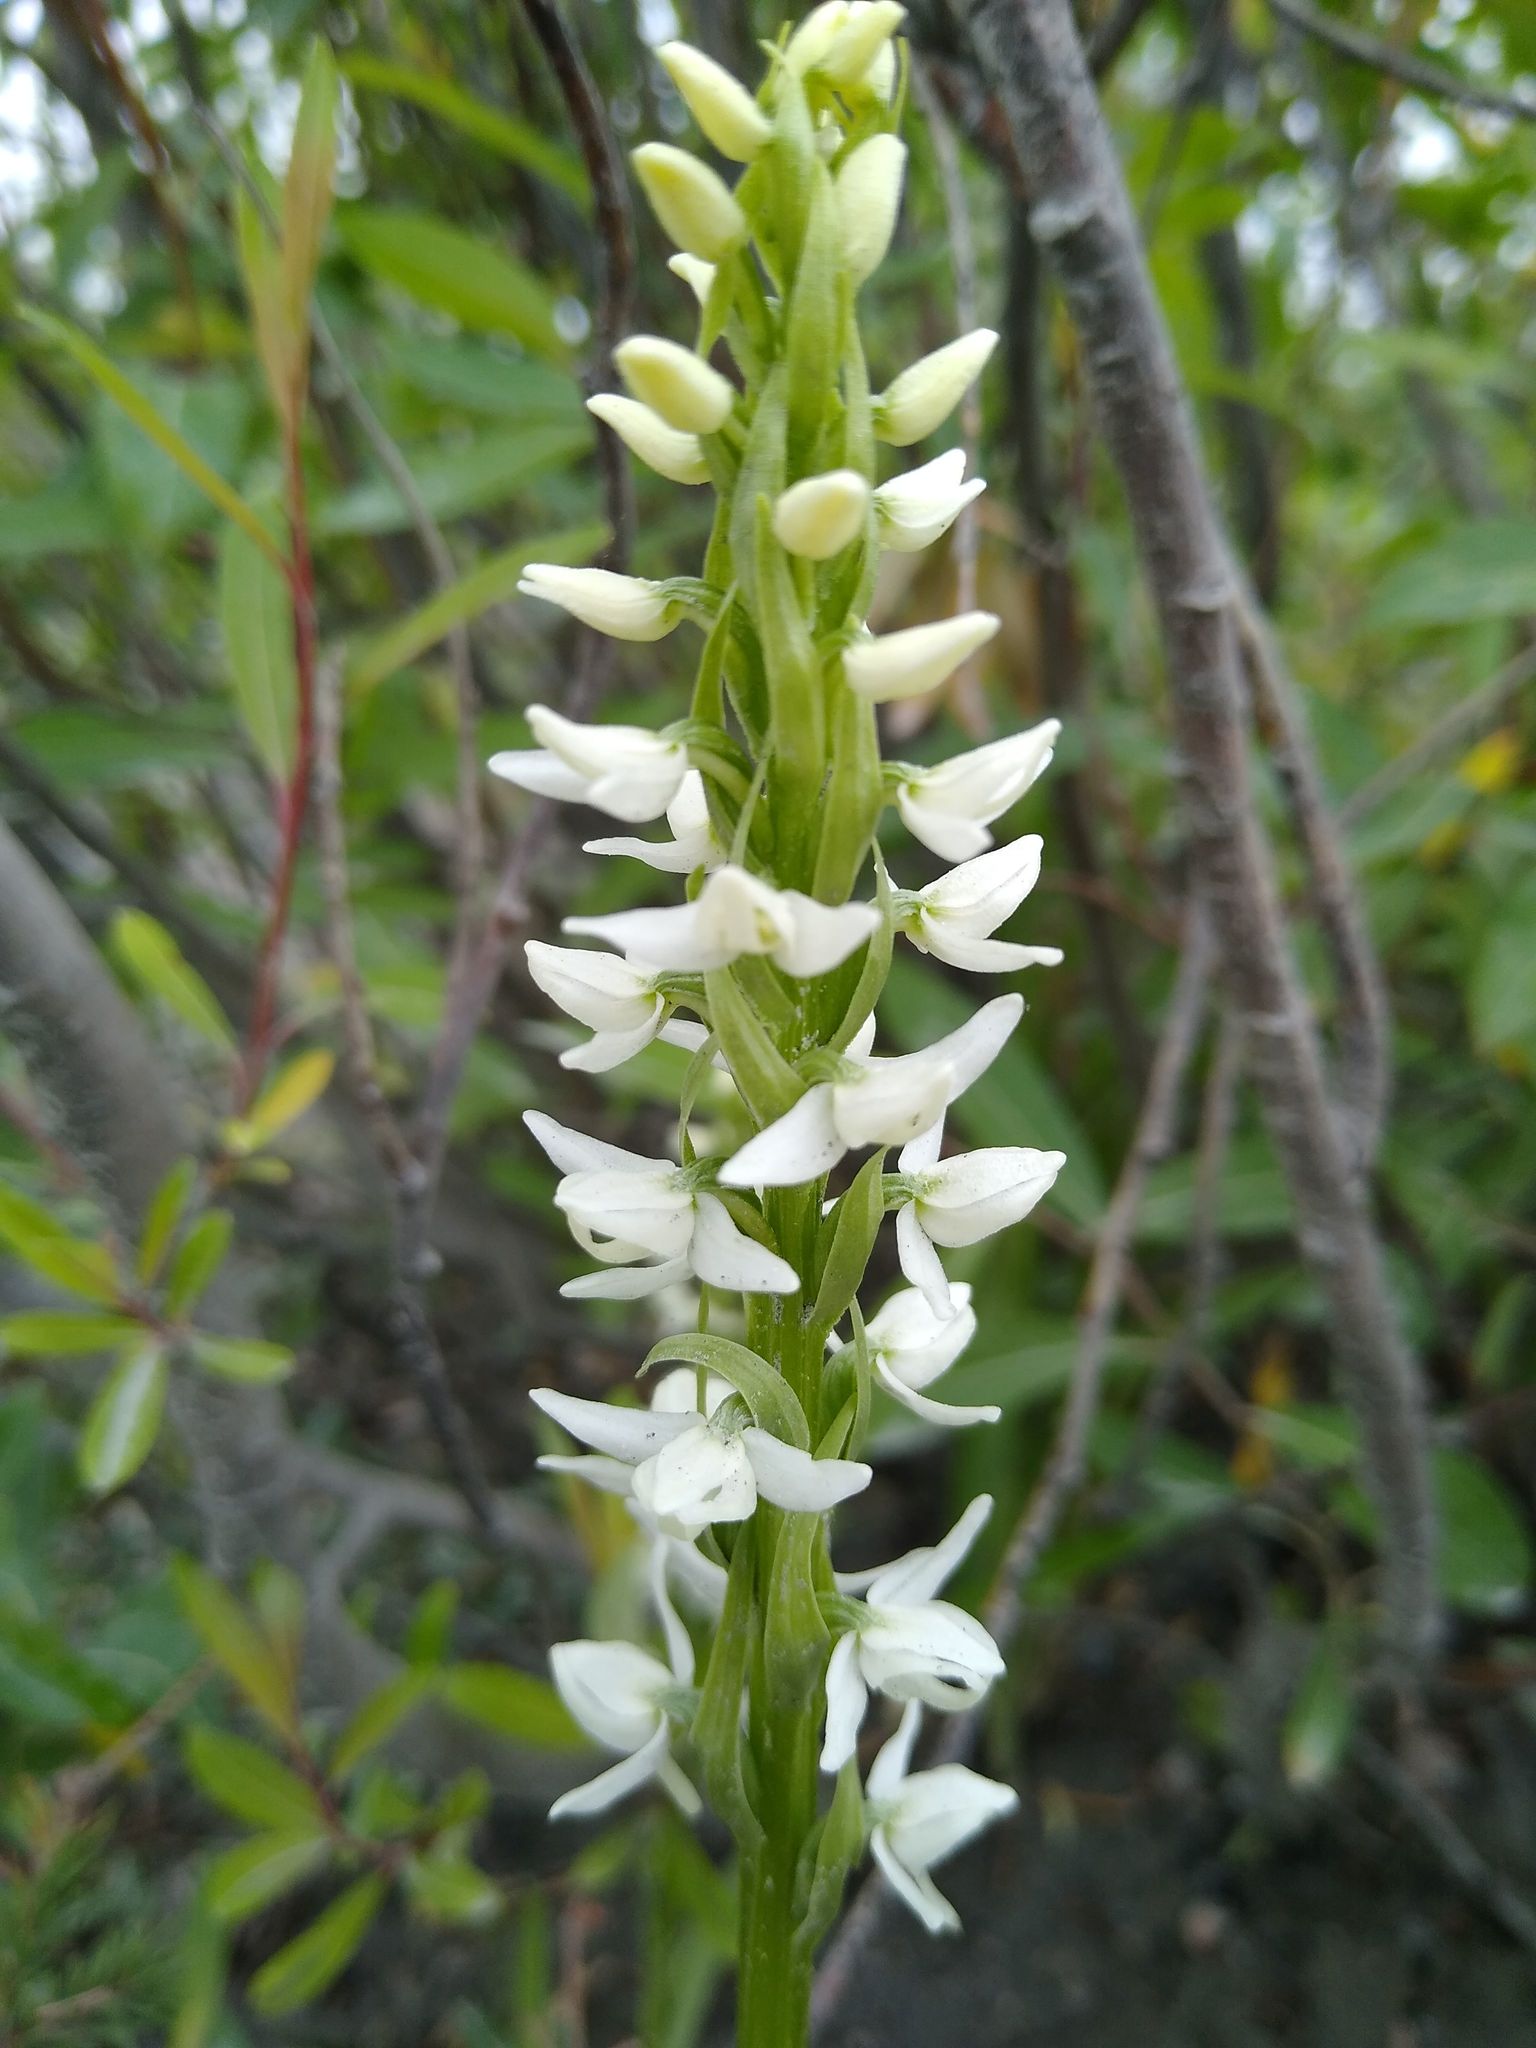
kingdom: Plantae
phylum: Tracheophyta
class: Liliopsida
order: Asparagales
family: Orchidaceae
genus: Platanthera
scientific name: Platanthera dilatata
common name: Bog candles
